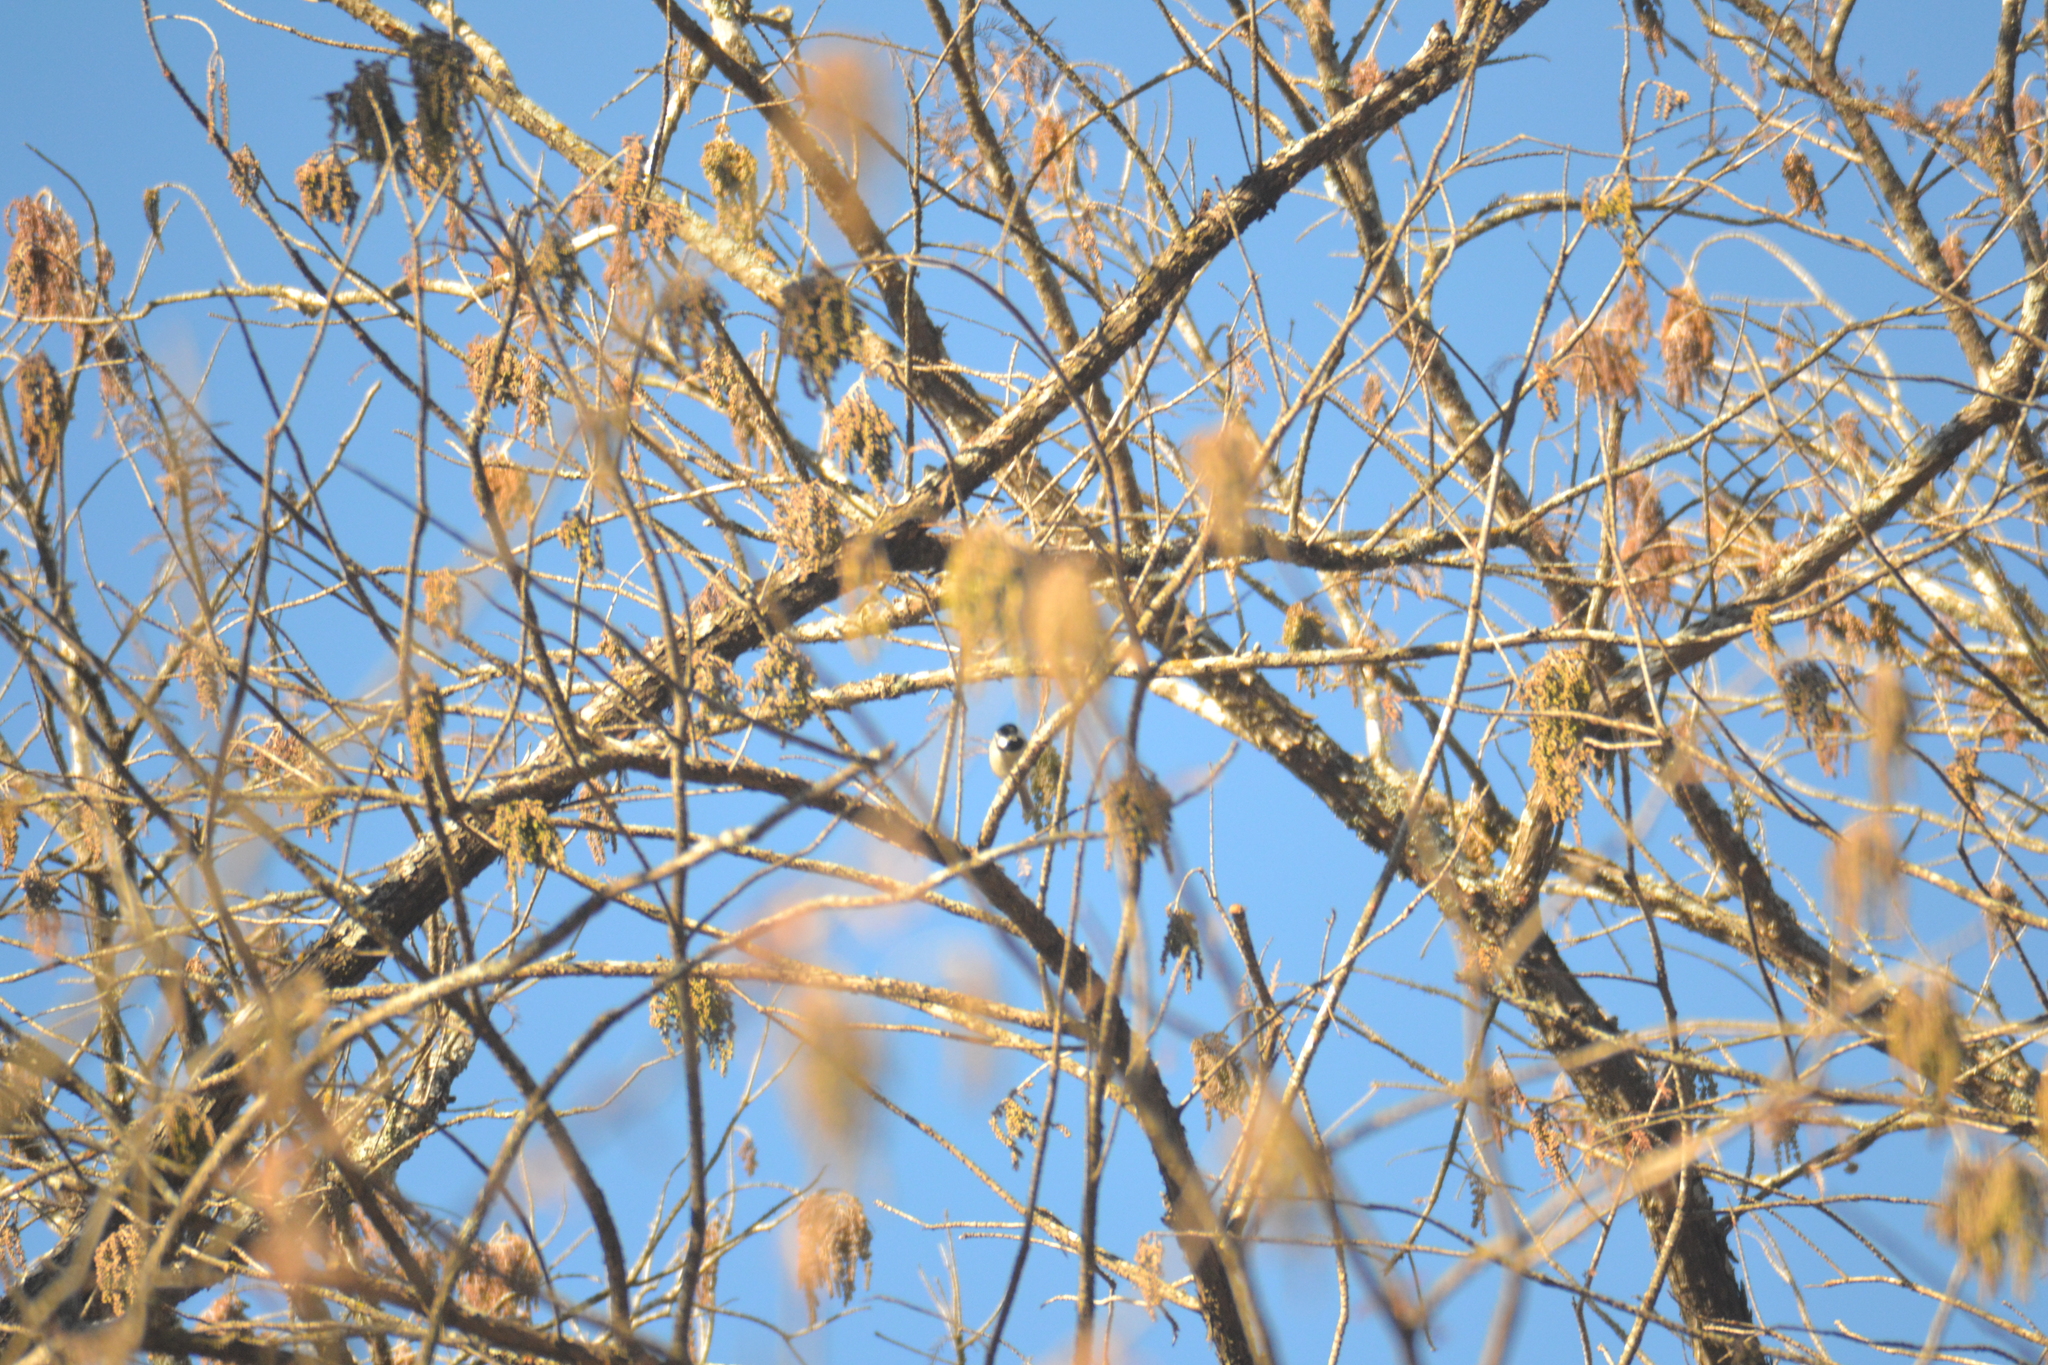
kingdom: Animalia
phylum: Chordata
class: Aves
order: Passeriformes
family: Paridae
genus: Poecile
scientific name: Poecile carolinensis
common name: Carolina chickadee
